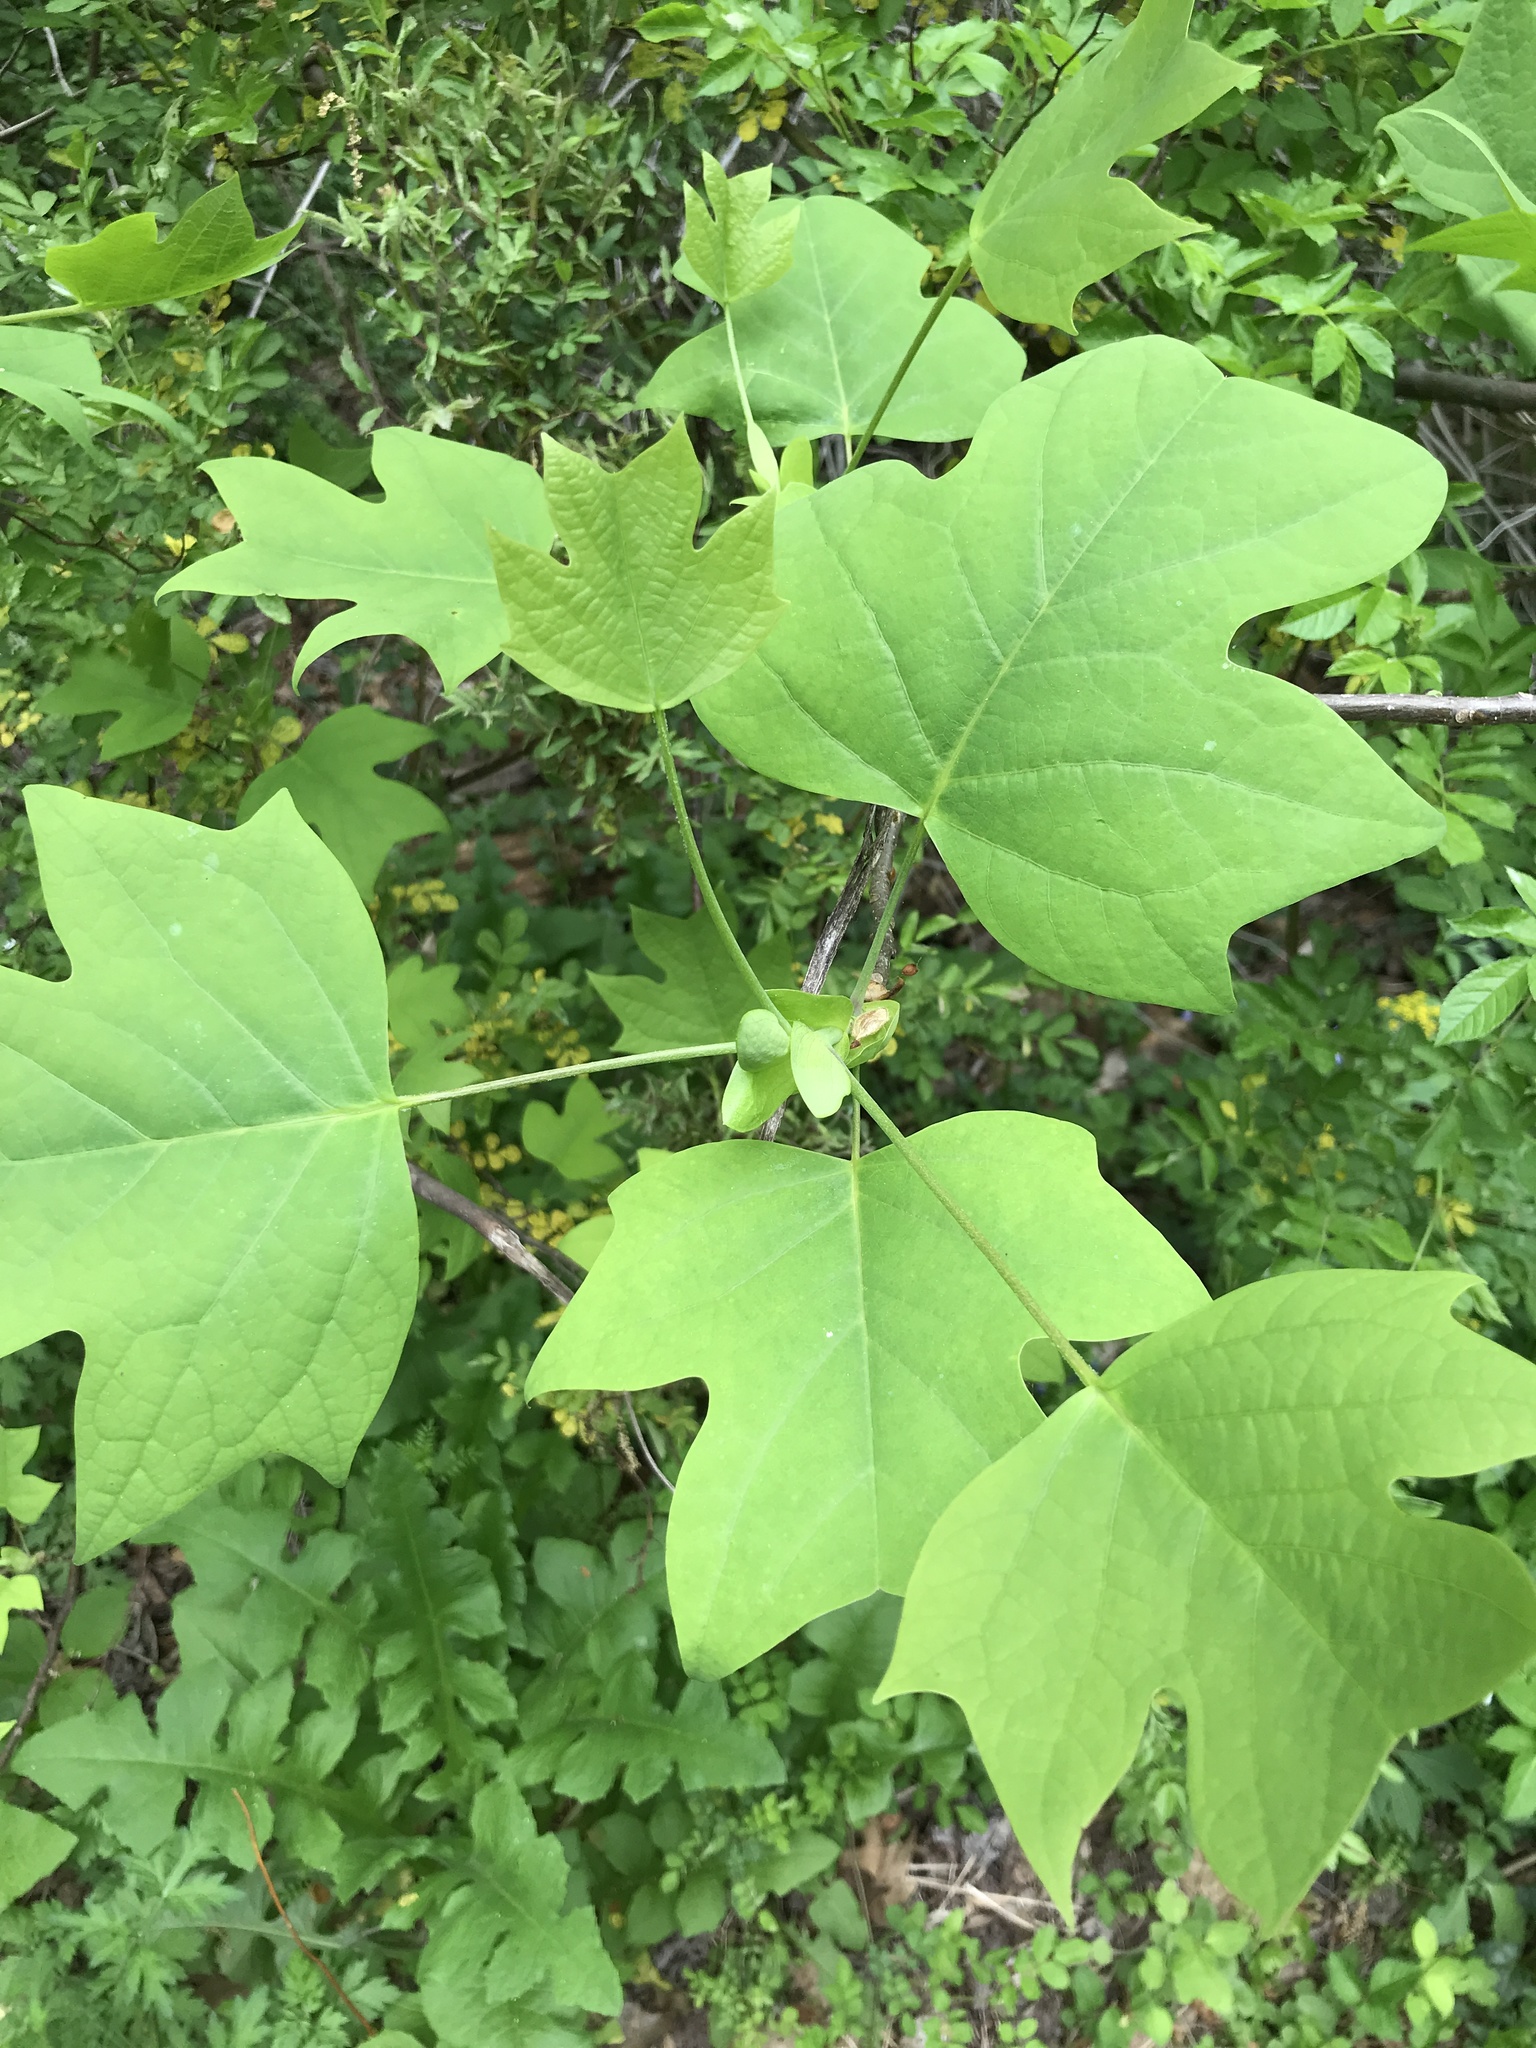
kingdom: Plantae
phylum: Tracheophyta
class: Magnoliopsida
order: Magnoliales
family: Magnoliaceae
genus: Liriodendron
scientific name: Liriodendron tulipifera
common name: Tulip tree
